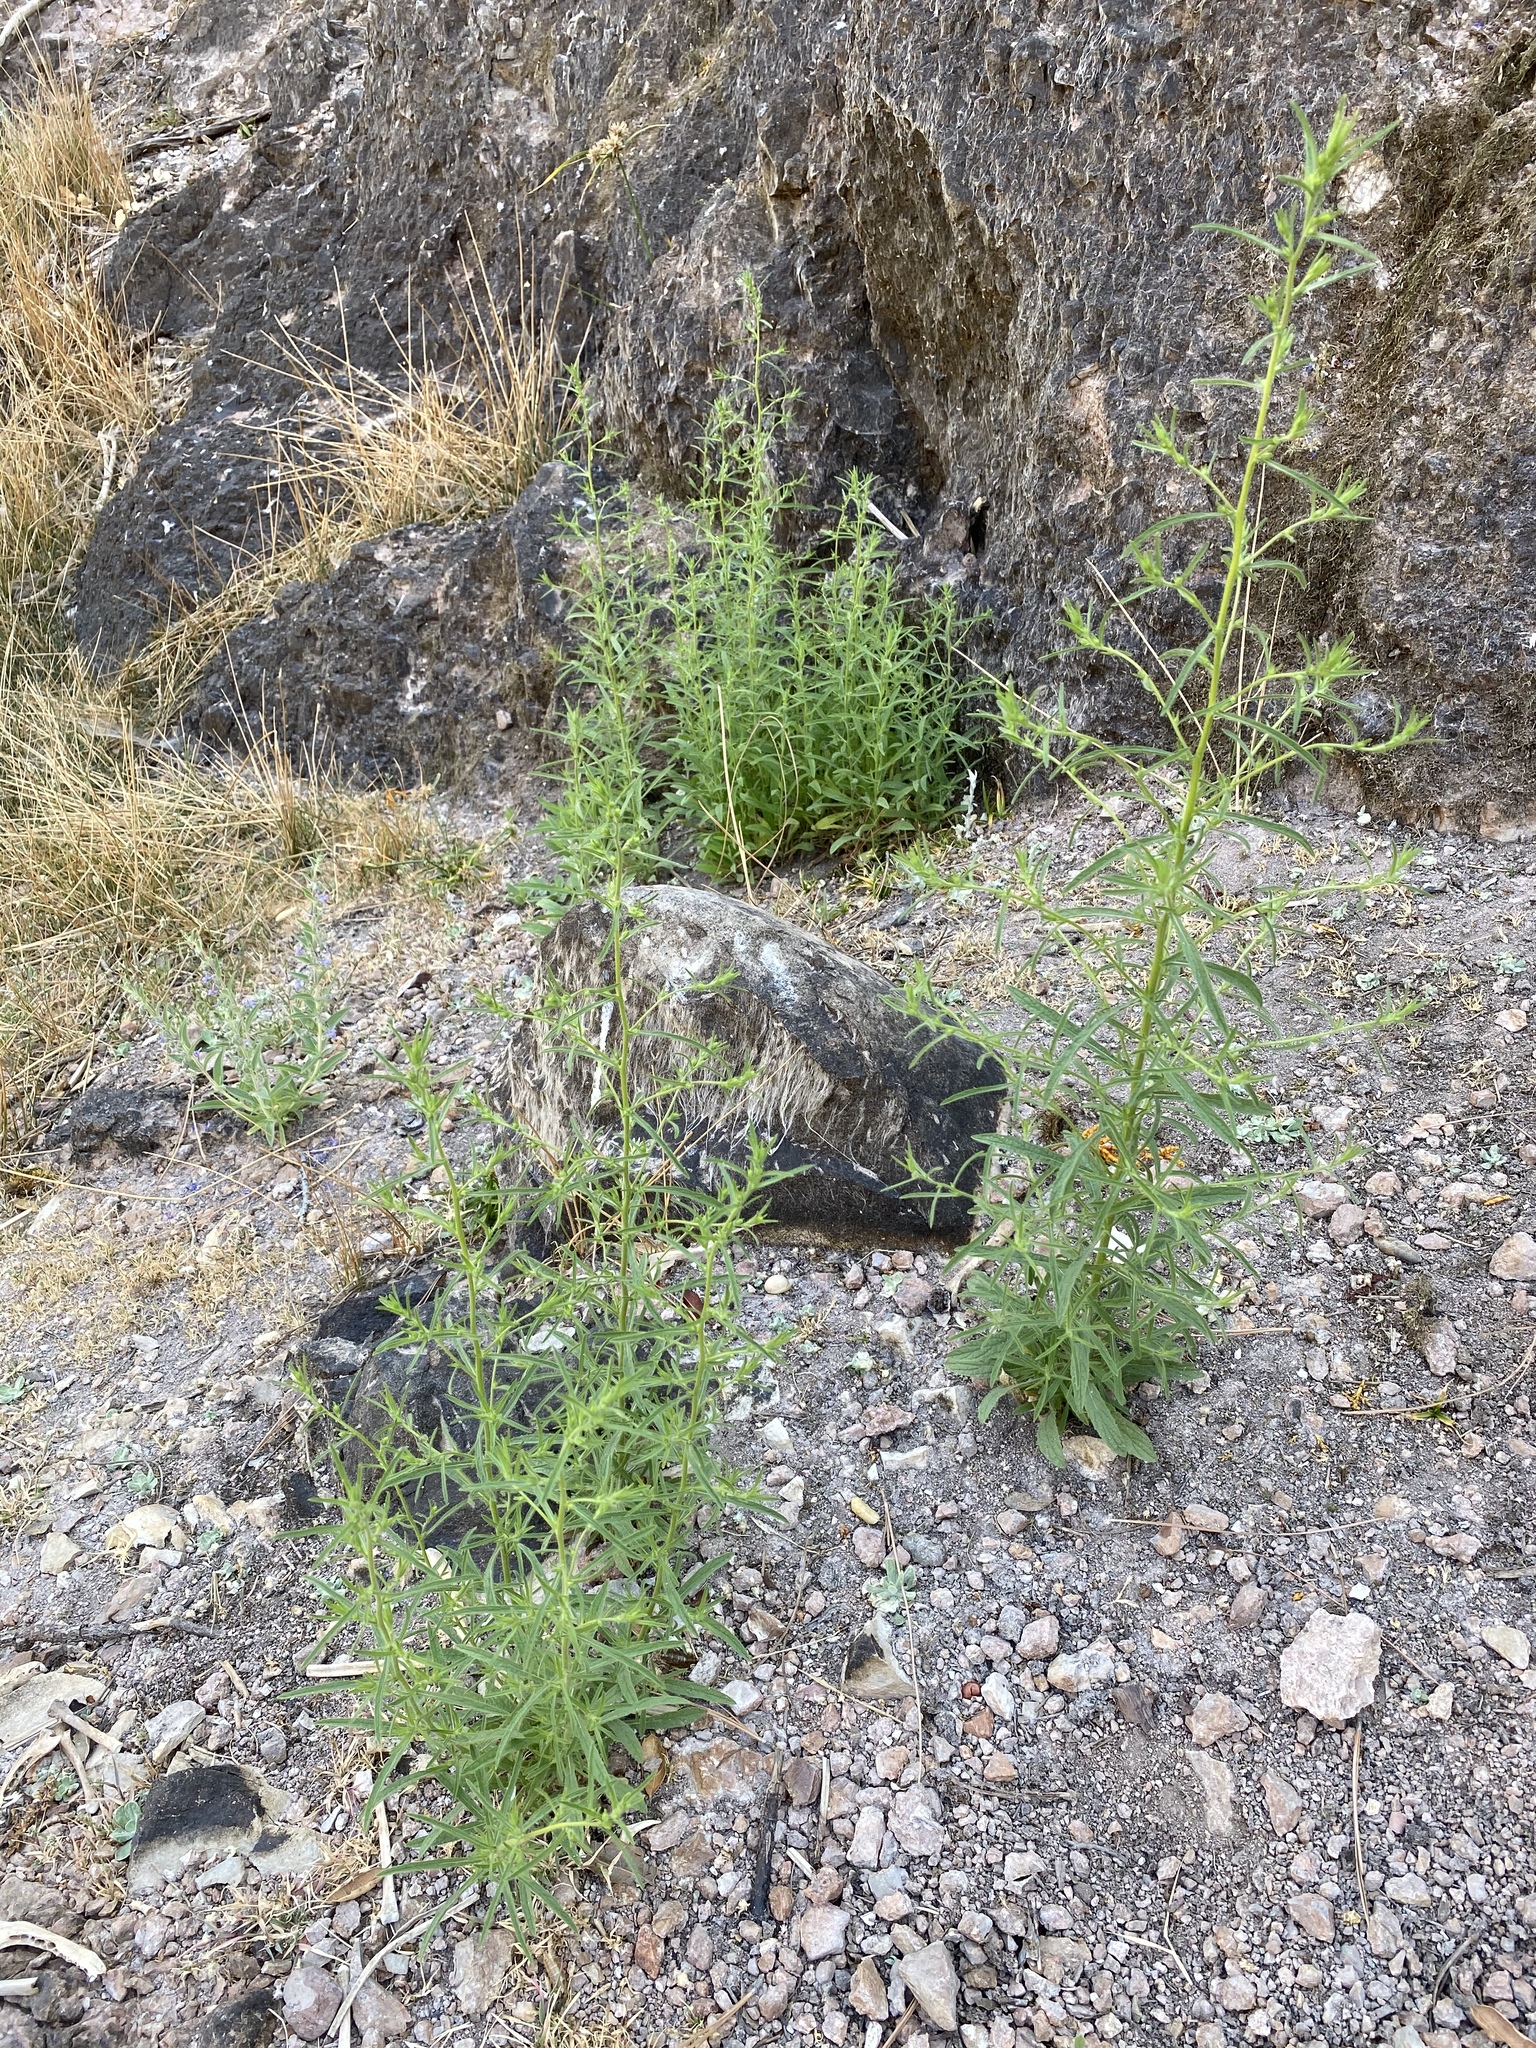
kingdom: Plantae
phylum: Tracheophyta
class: Magnoliopsida
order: Asterales
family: Asteraceae
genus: Dittrichia
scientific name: Dittrichia graveolens
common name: Stinking fleabane
